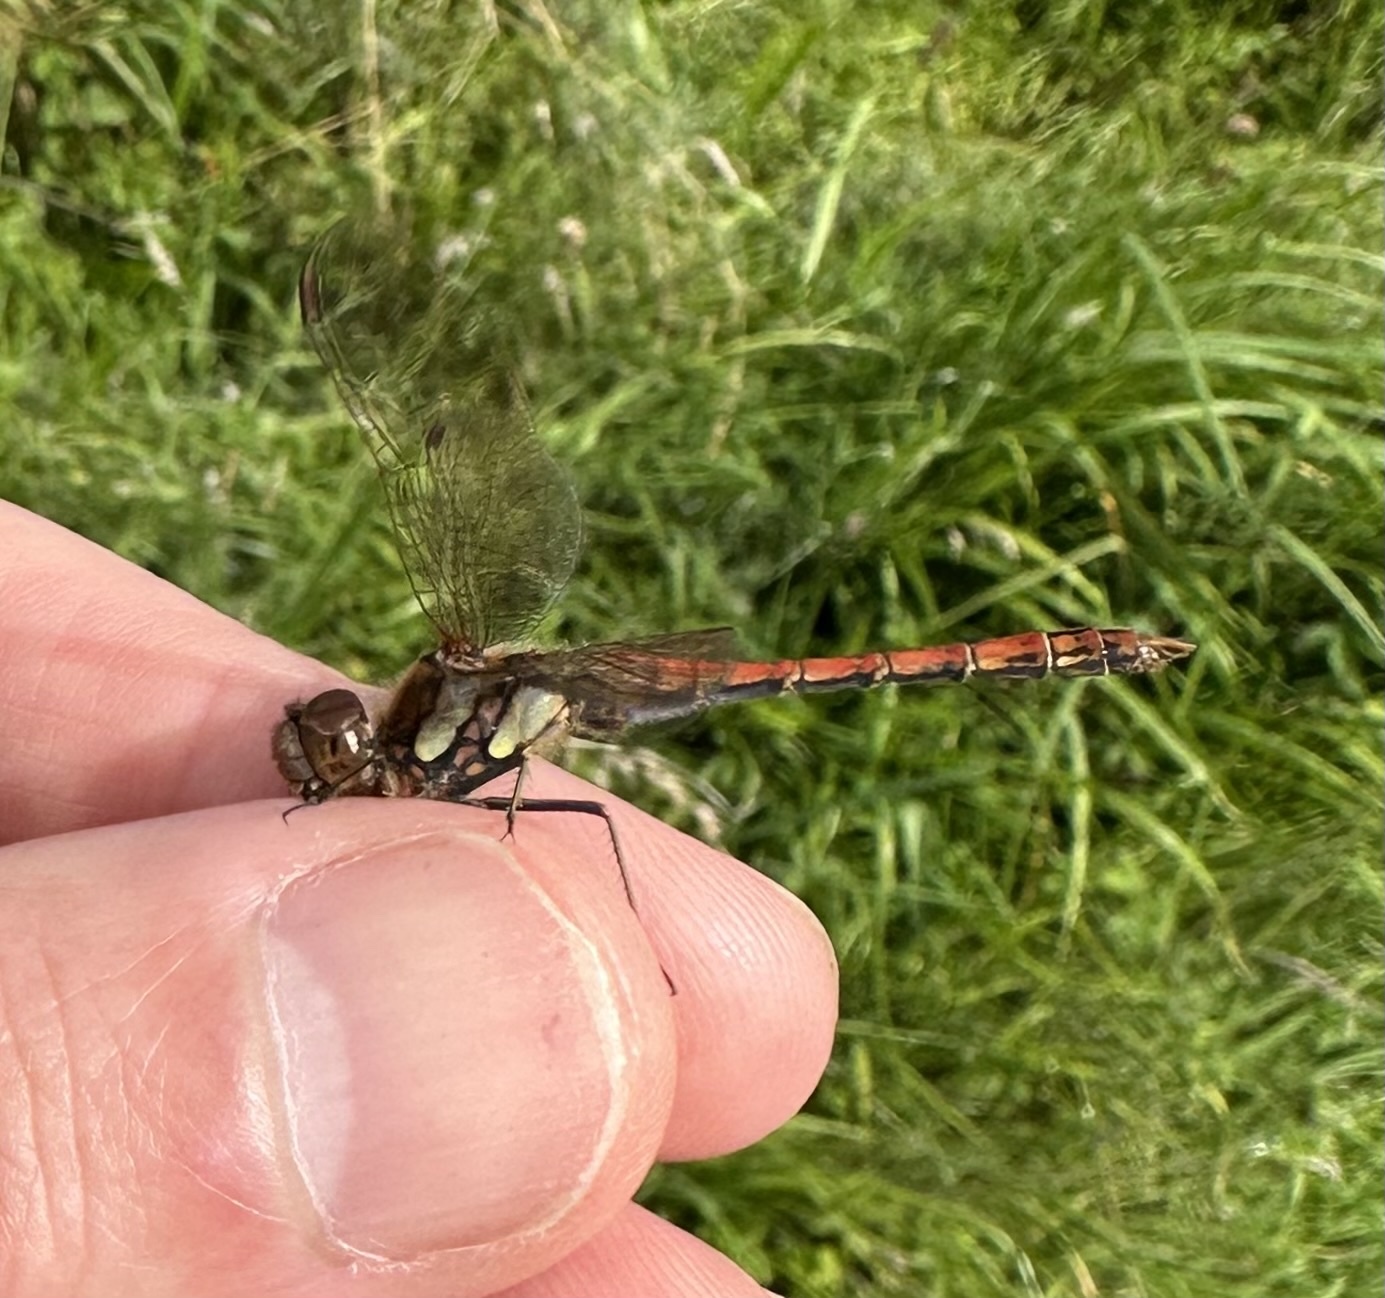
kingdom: Animalia
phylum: Arthropoda
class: Insecta
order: Odonata
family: Libellulidae
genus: Sympetrum
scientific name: Sympetrum striolatum
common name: Common darter
